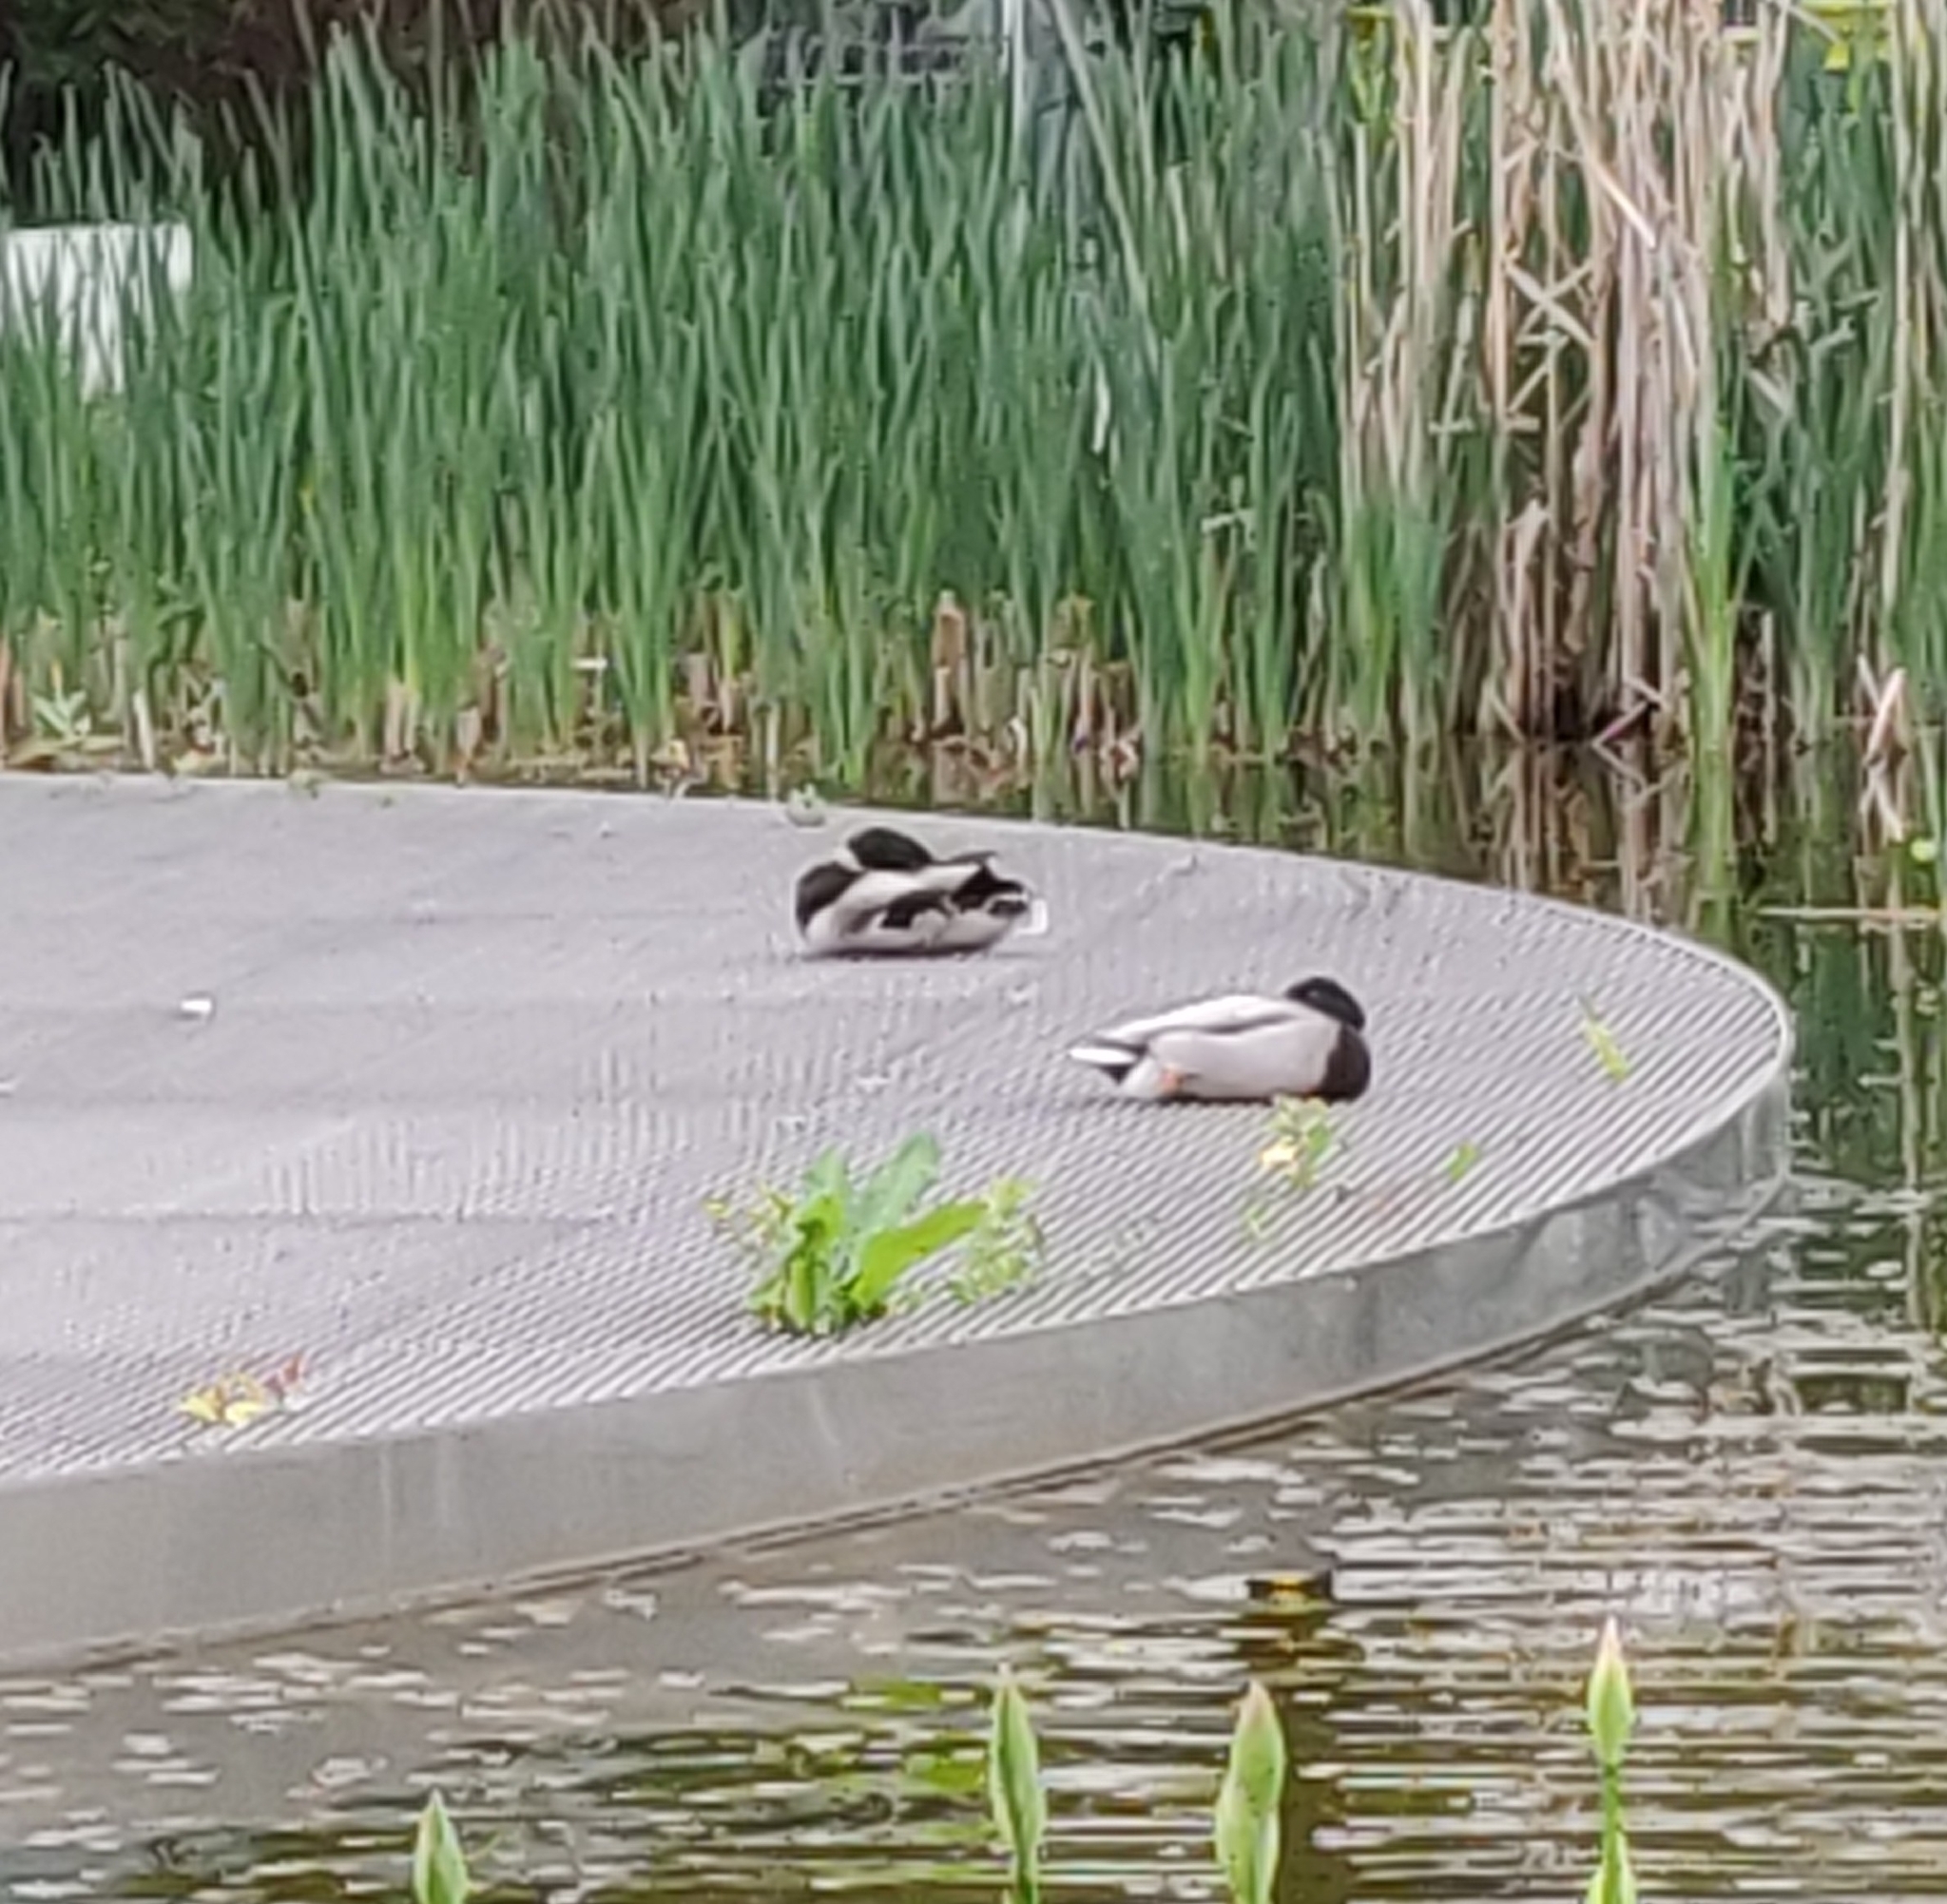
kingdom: Animalia
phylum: Chordata
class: Aves
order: Anseriformes
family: Anatidae
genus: Anas
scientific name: Anas platyrhynchos
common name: Mallard
